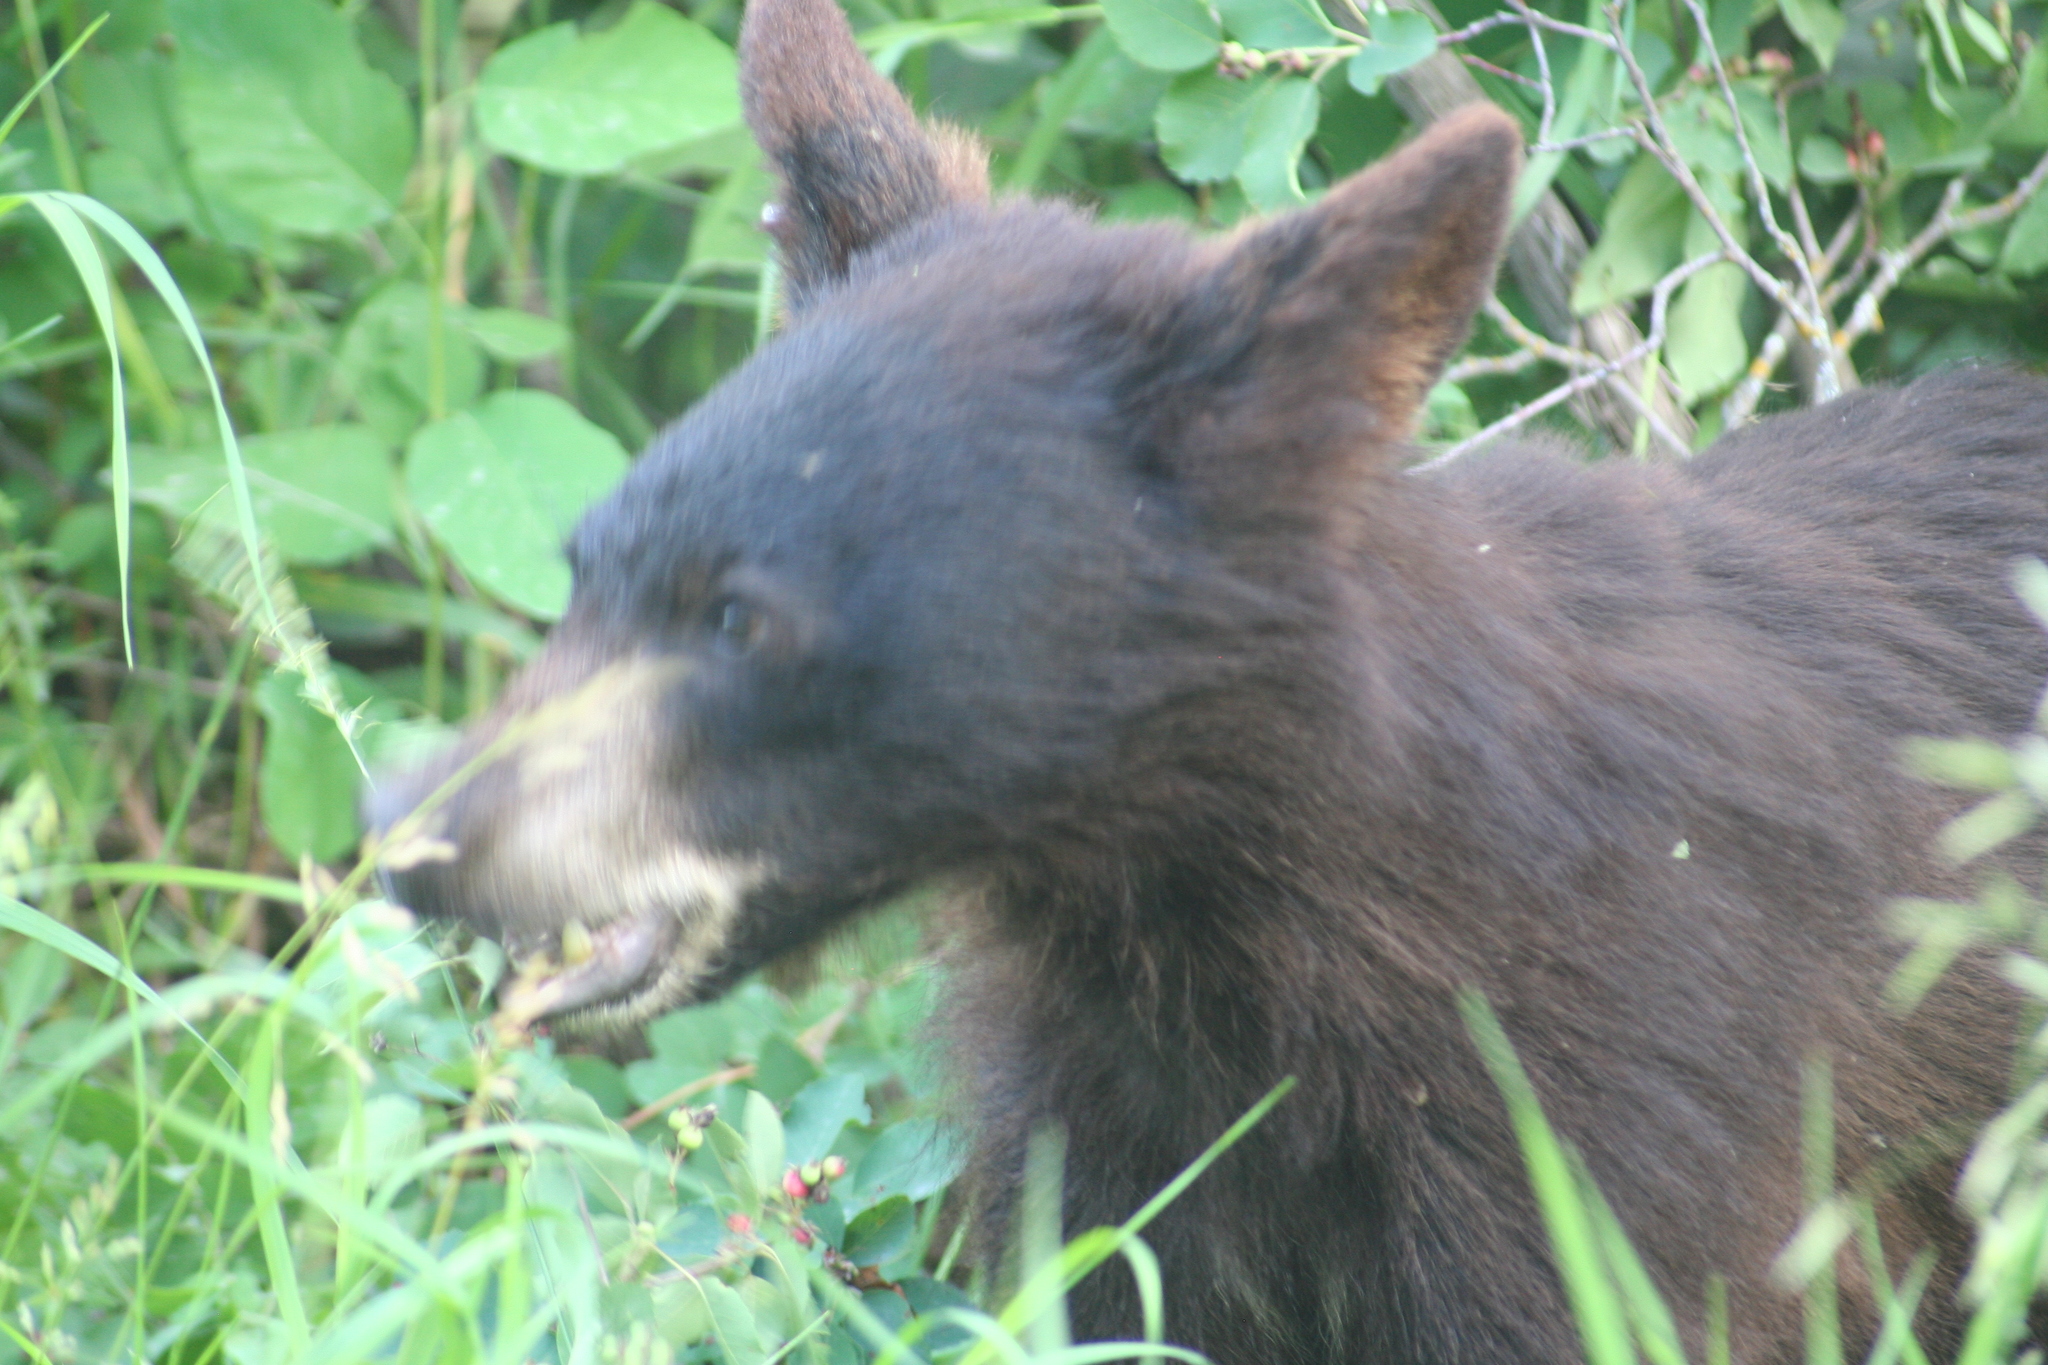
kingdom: Animalia
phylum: Chordata
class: Mammalia
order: Carnivora
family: Ursidae
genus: Ursus
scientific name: Ursus americanus
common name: American black bear
